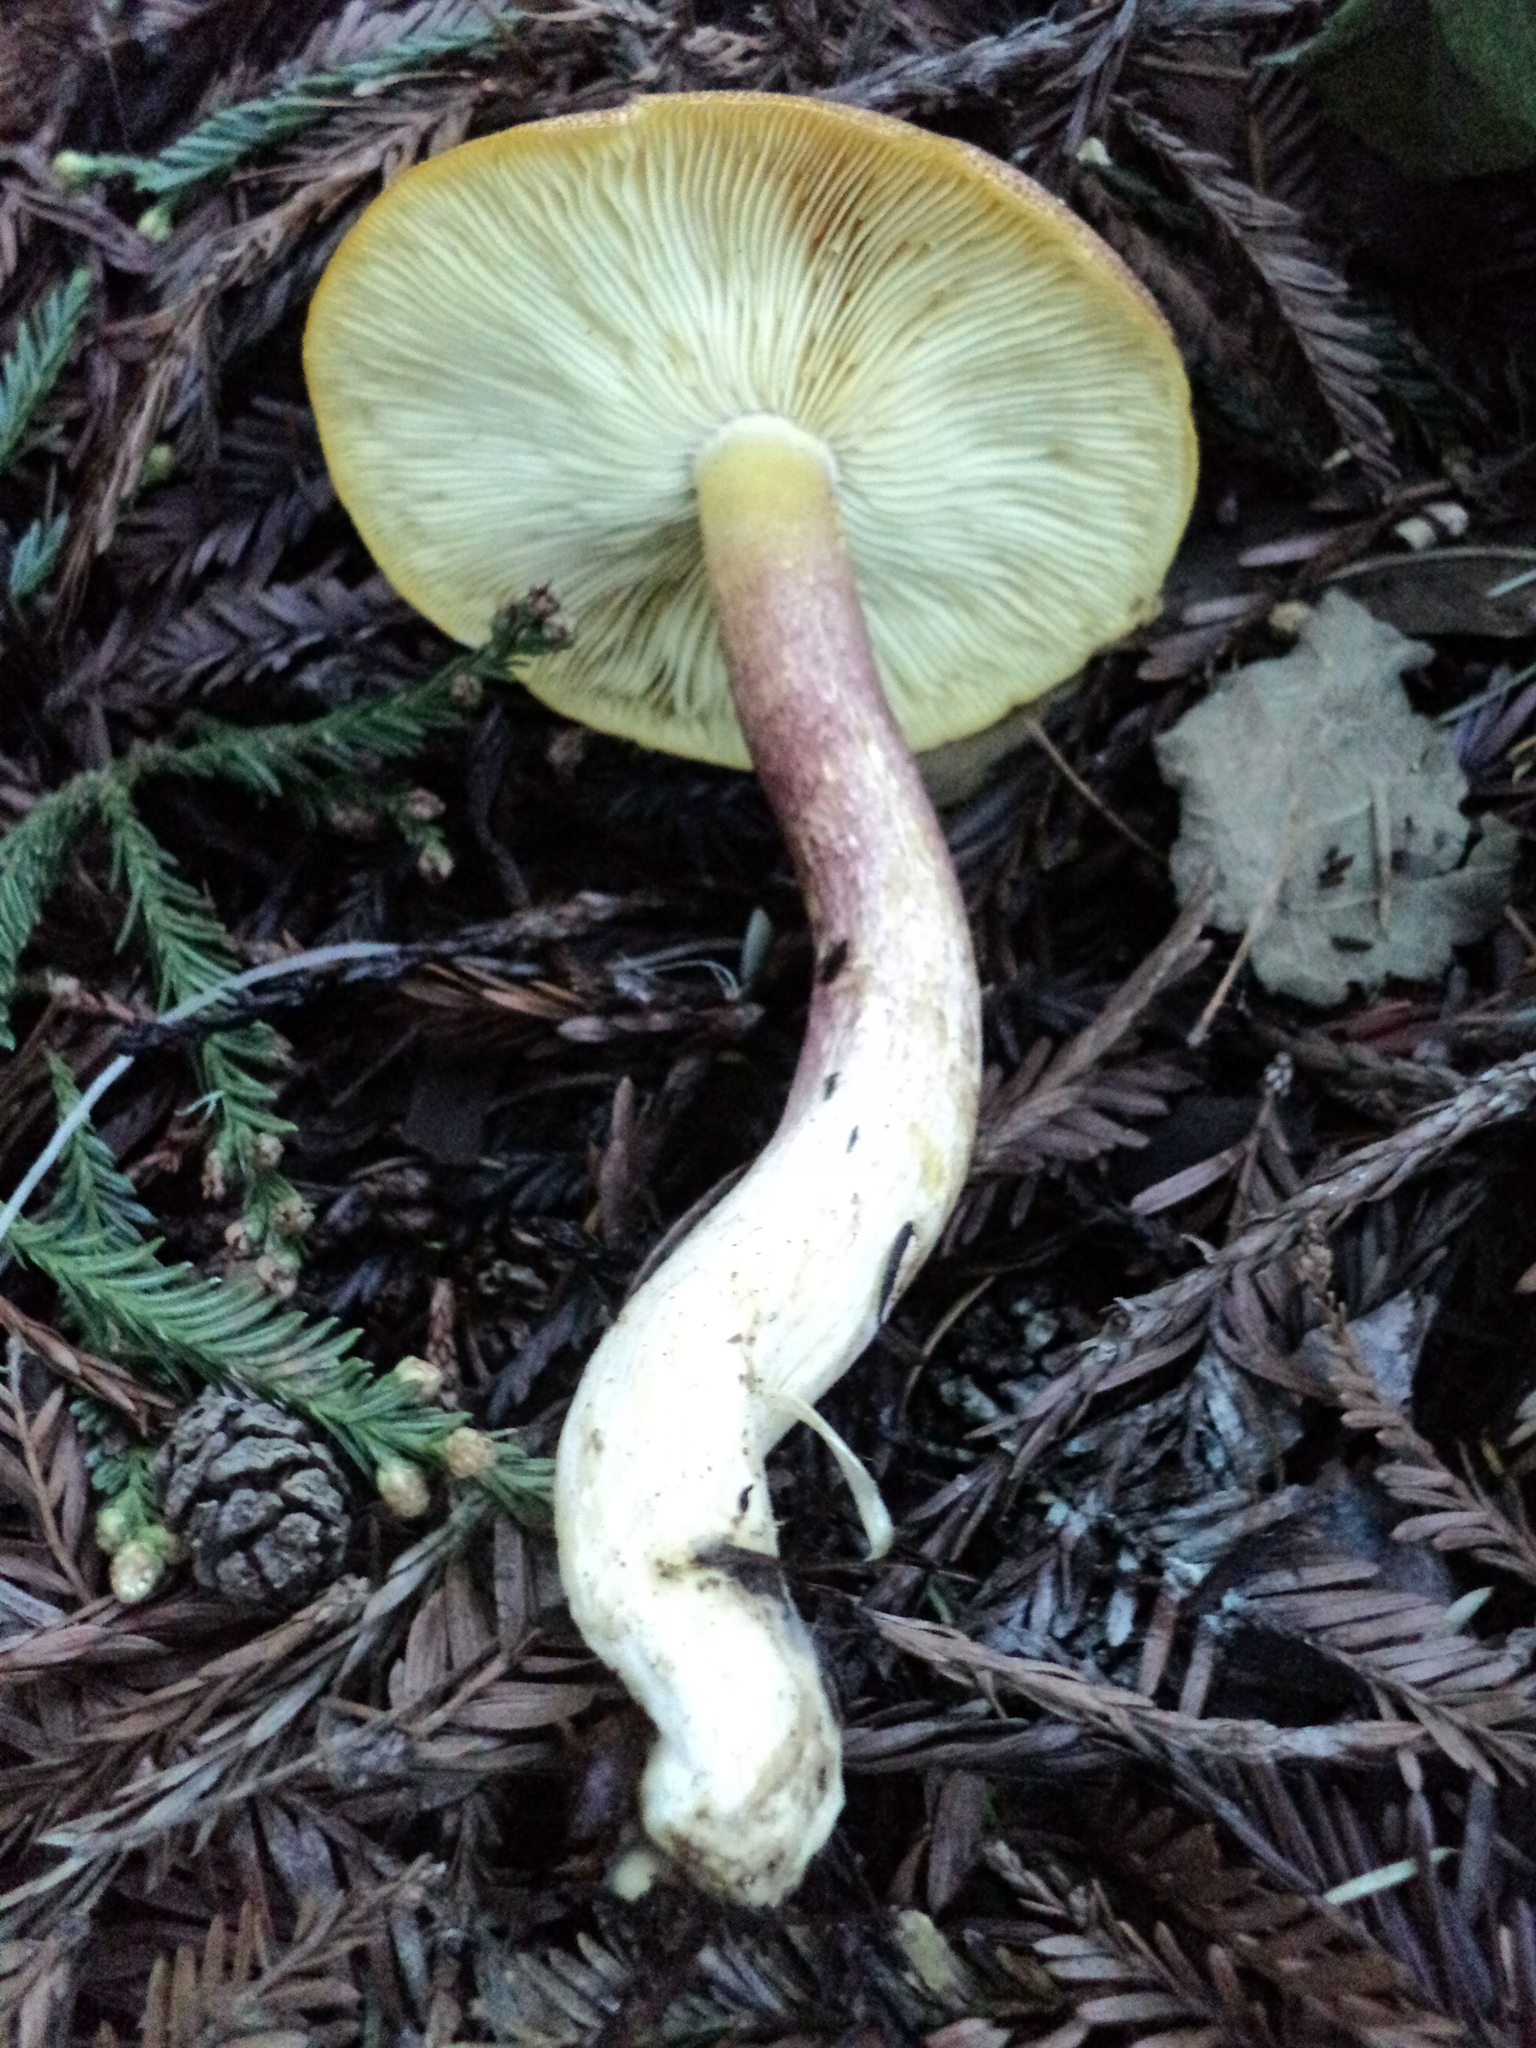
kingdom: Fungi
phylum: Basidiomycota
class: Agaricomycetes
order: Agaricales
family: Tricholomataceae
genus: Tricholomopsis
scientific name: Tricholomopsis rutilans
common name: Plums and custard
